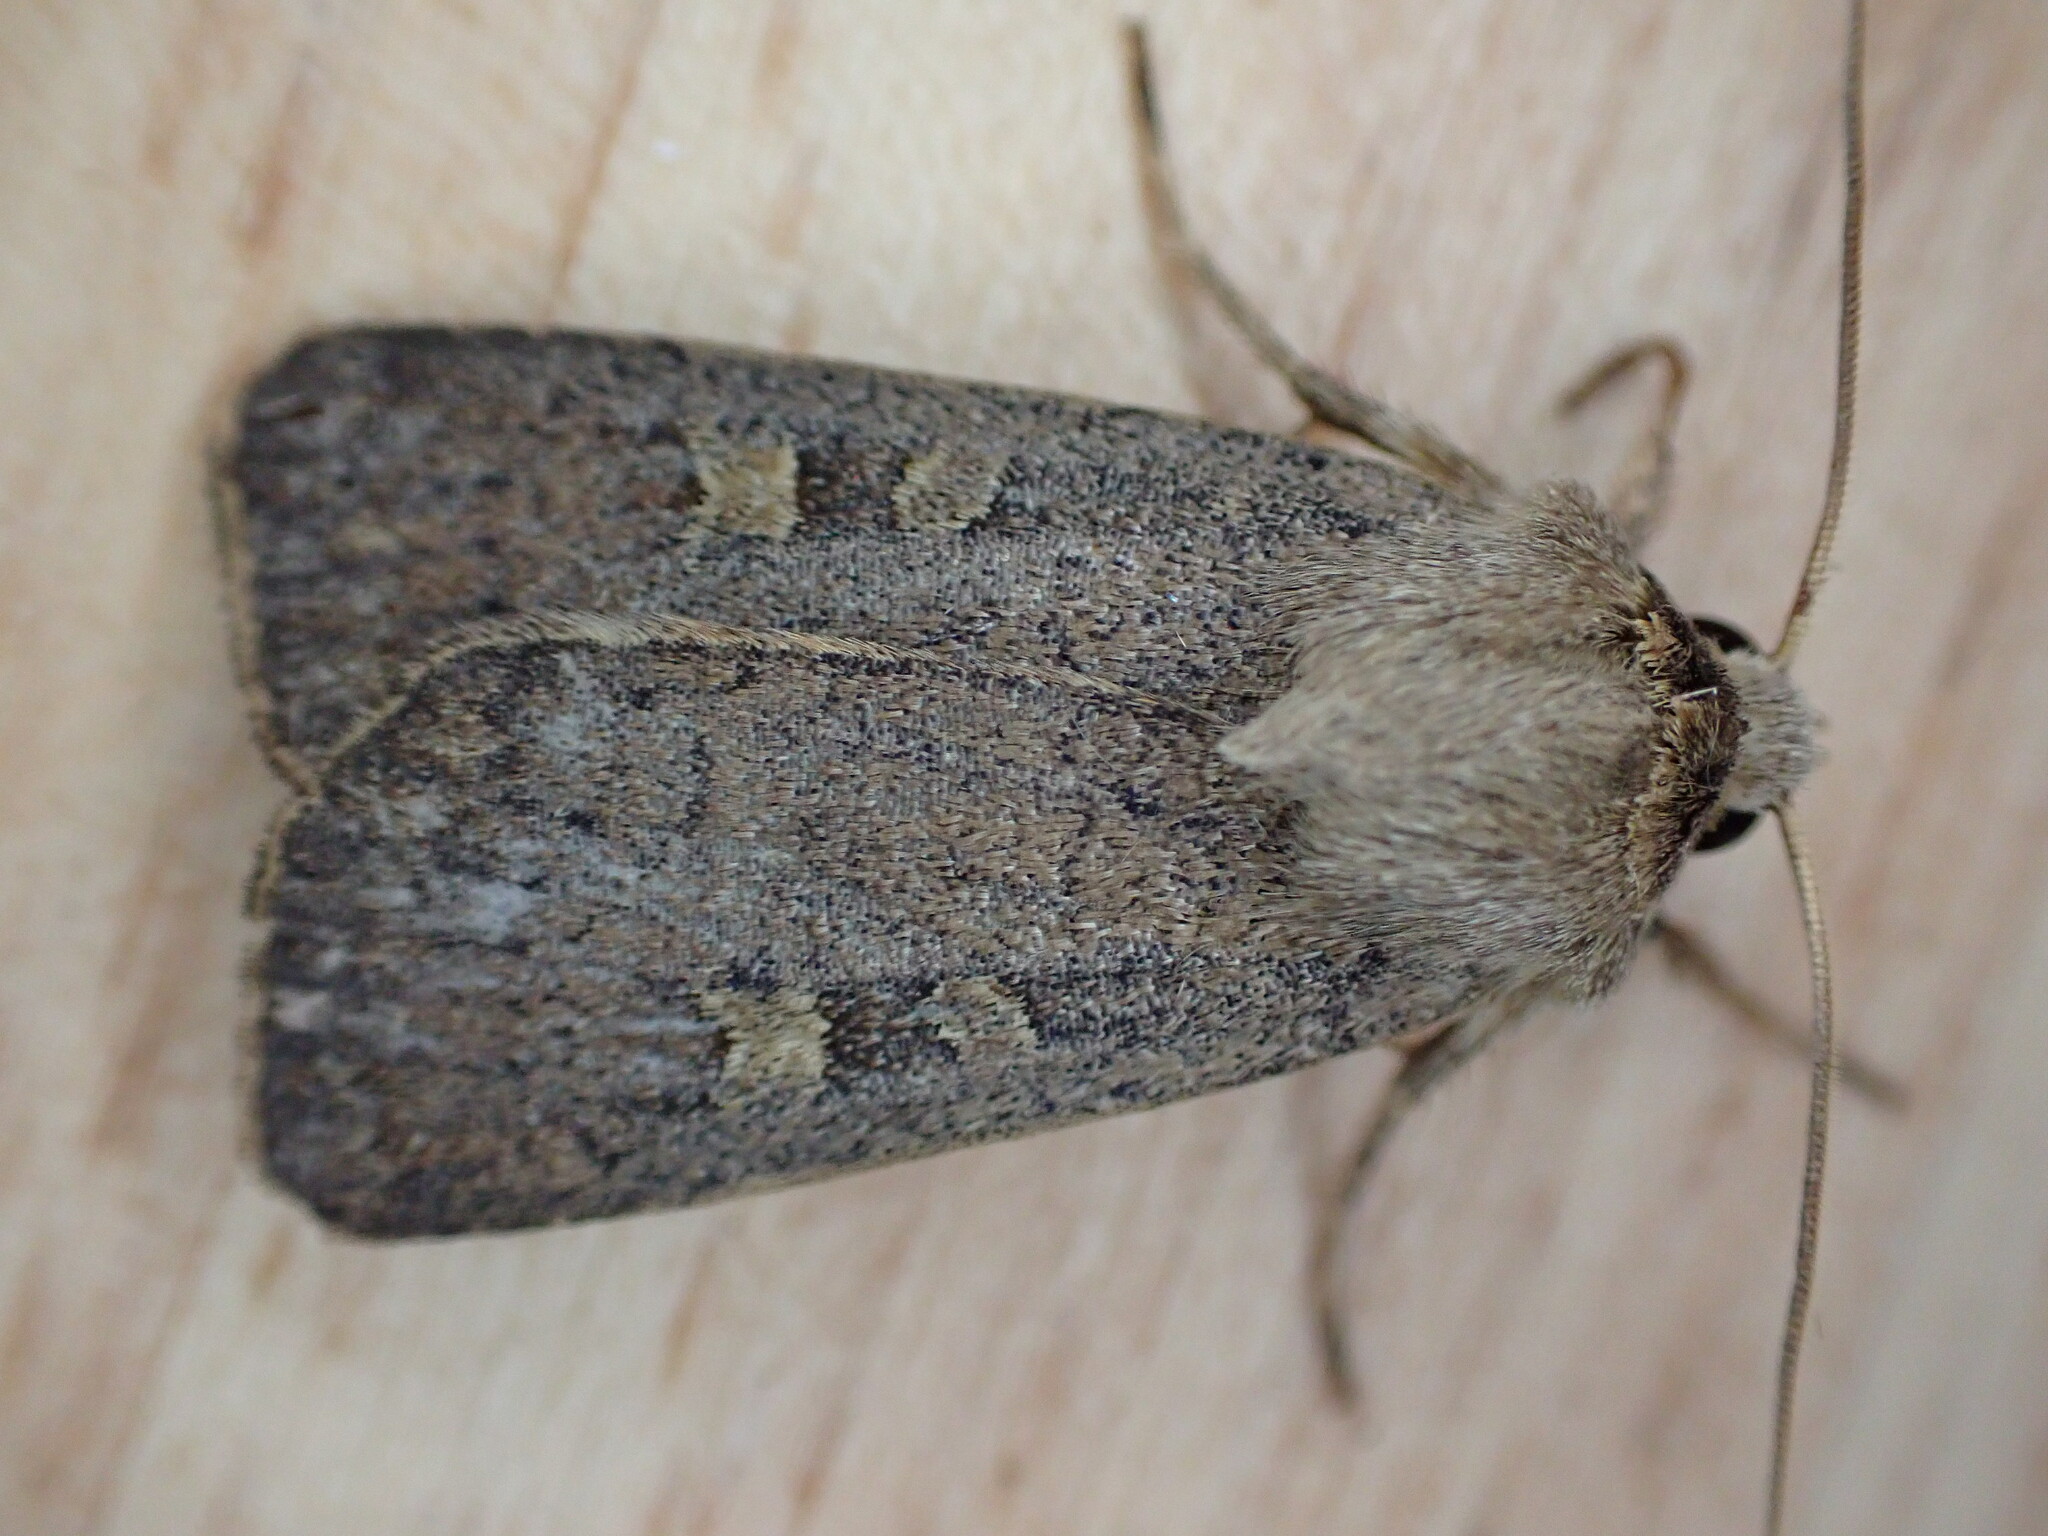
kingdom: Animalia
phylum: Arthropoda
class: Insecta
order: Lepidoptera
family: Noctuidae
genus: Xestia
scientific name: Xestia xanthographa
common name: Square-spot rustic
